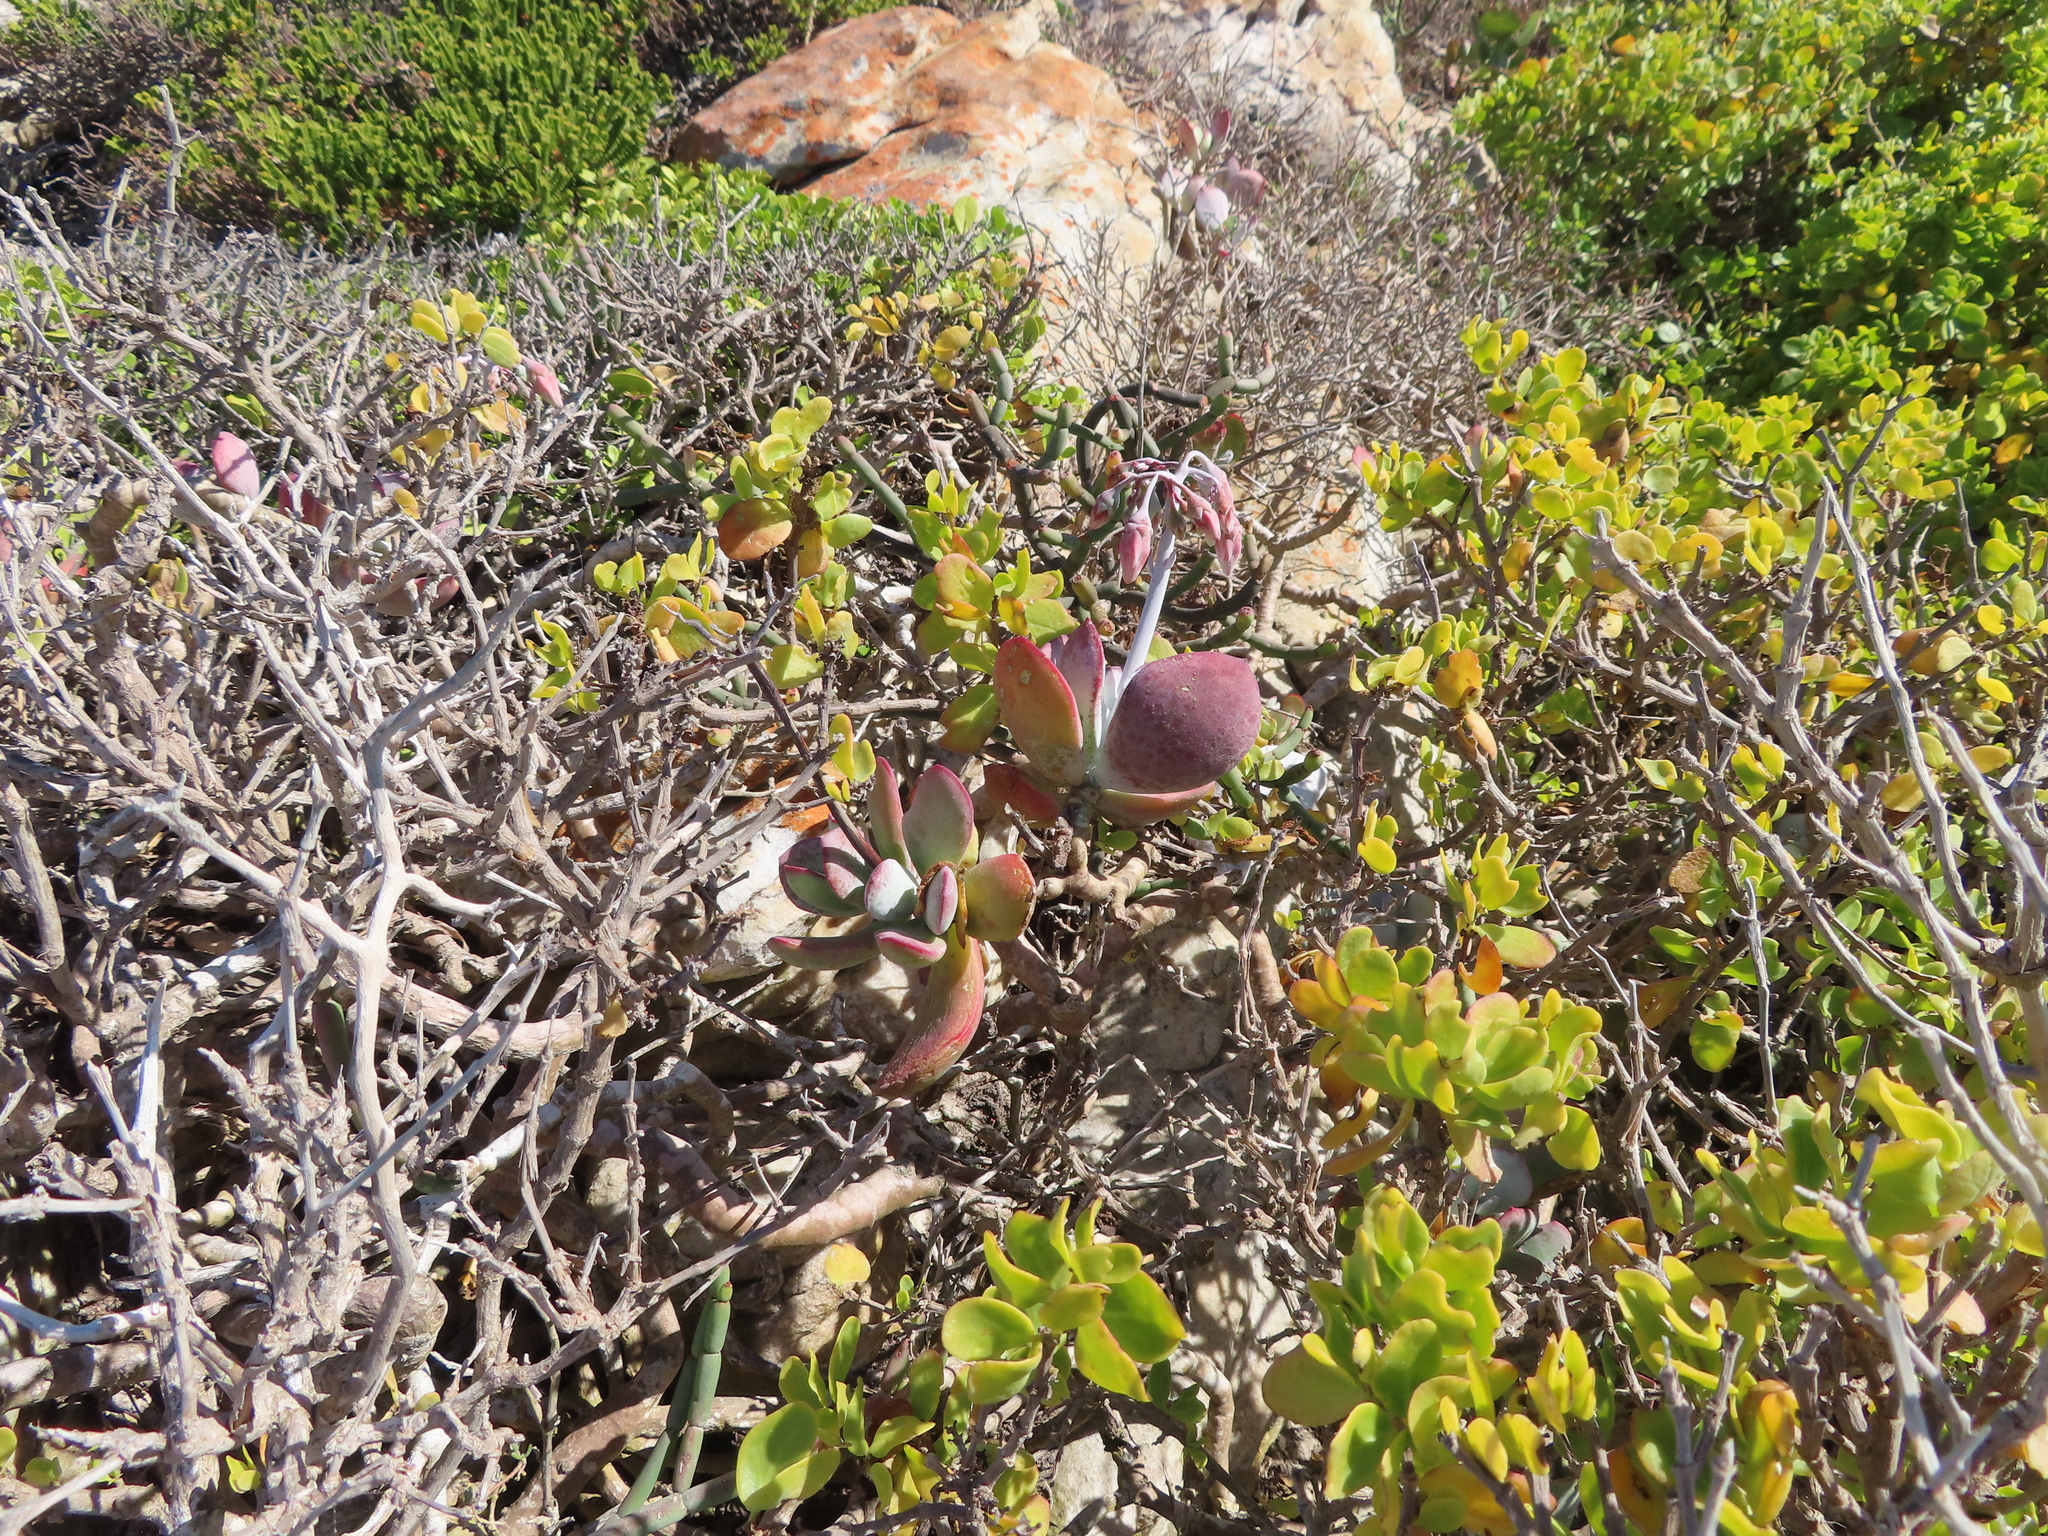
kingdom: Plantae
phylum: Tracheophyta
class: Magnoliopsida
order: Saxifragales
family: Crassulaceae
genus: Cotyledon
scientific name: Cotyledon orbiculata
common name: Pig's ear
